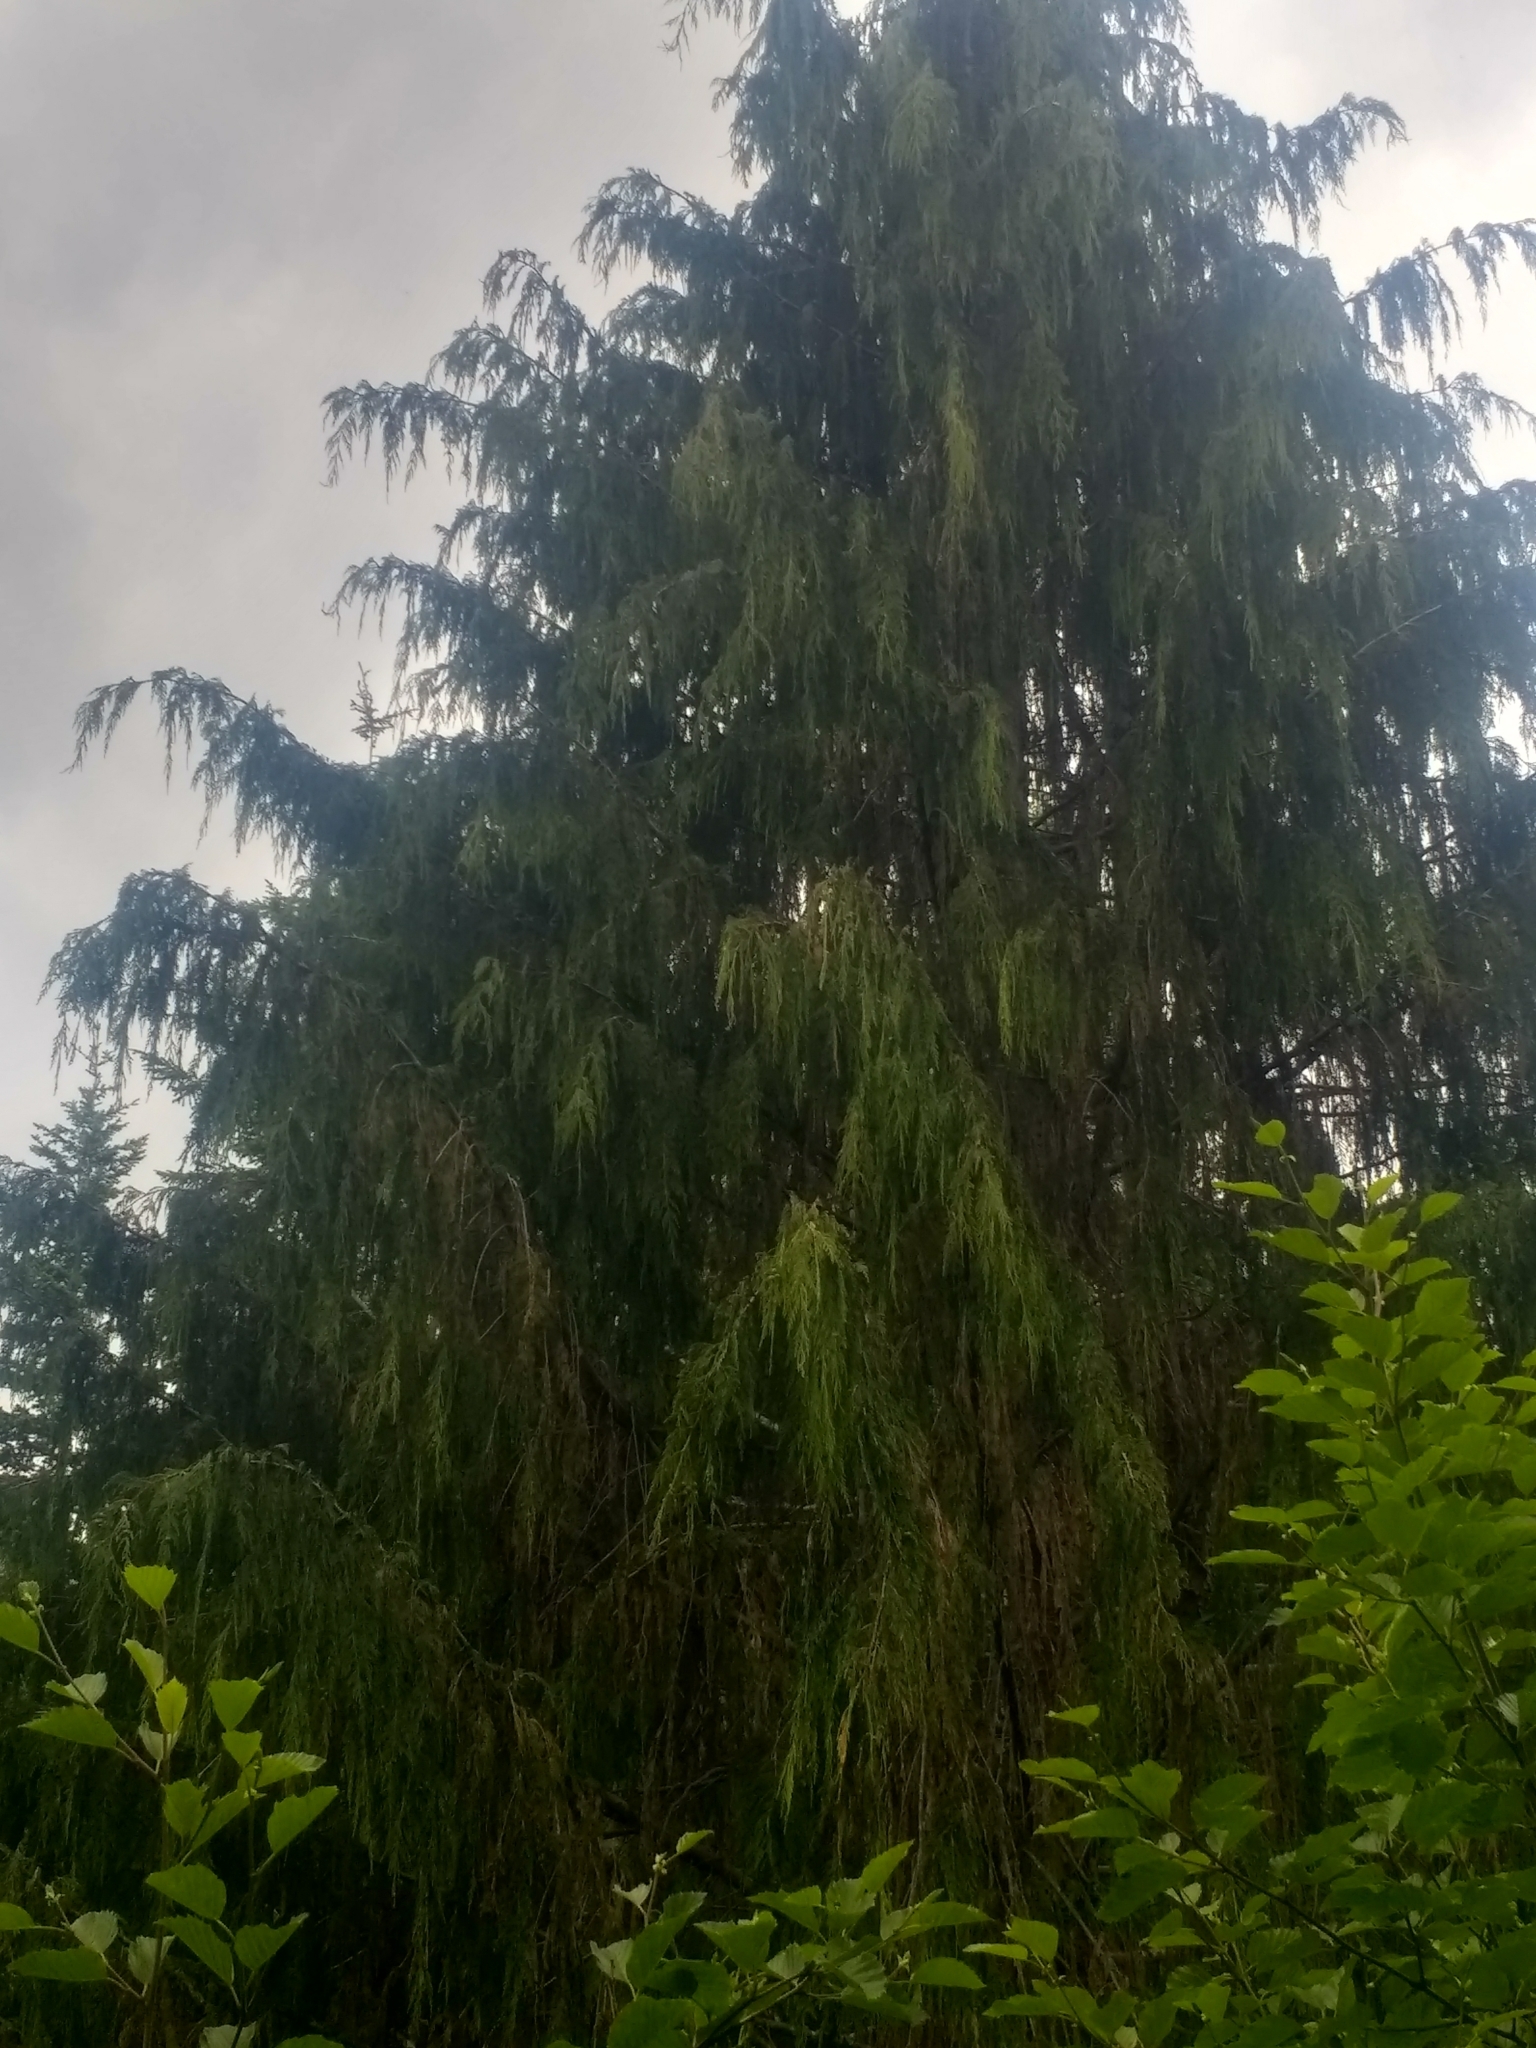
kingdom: Plantae
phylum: Tracheophyta
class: Pinopsida
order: Pinales
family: Cupressaceae
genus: Xanthocyparis
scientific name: Xanthocyparis nootkatensis
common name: Nootka cypress
